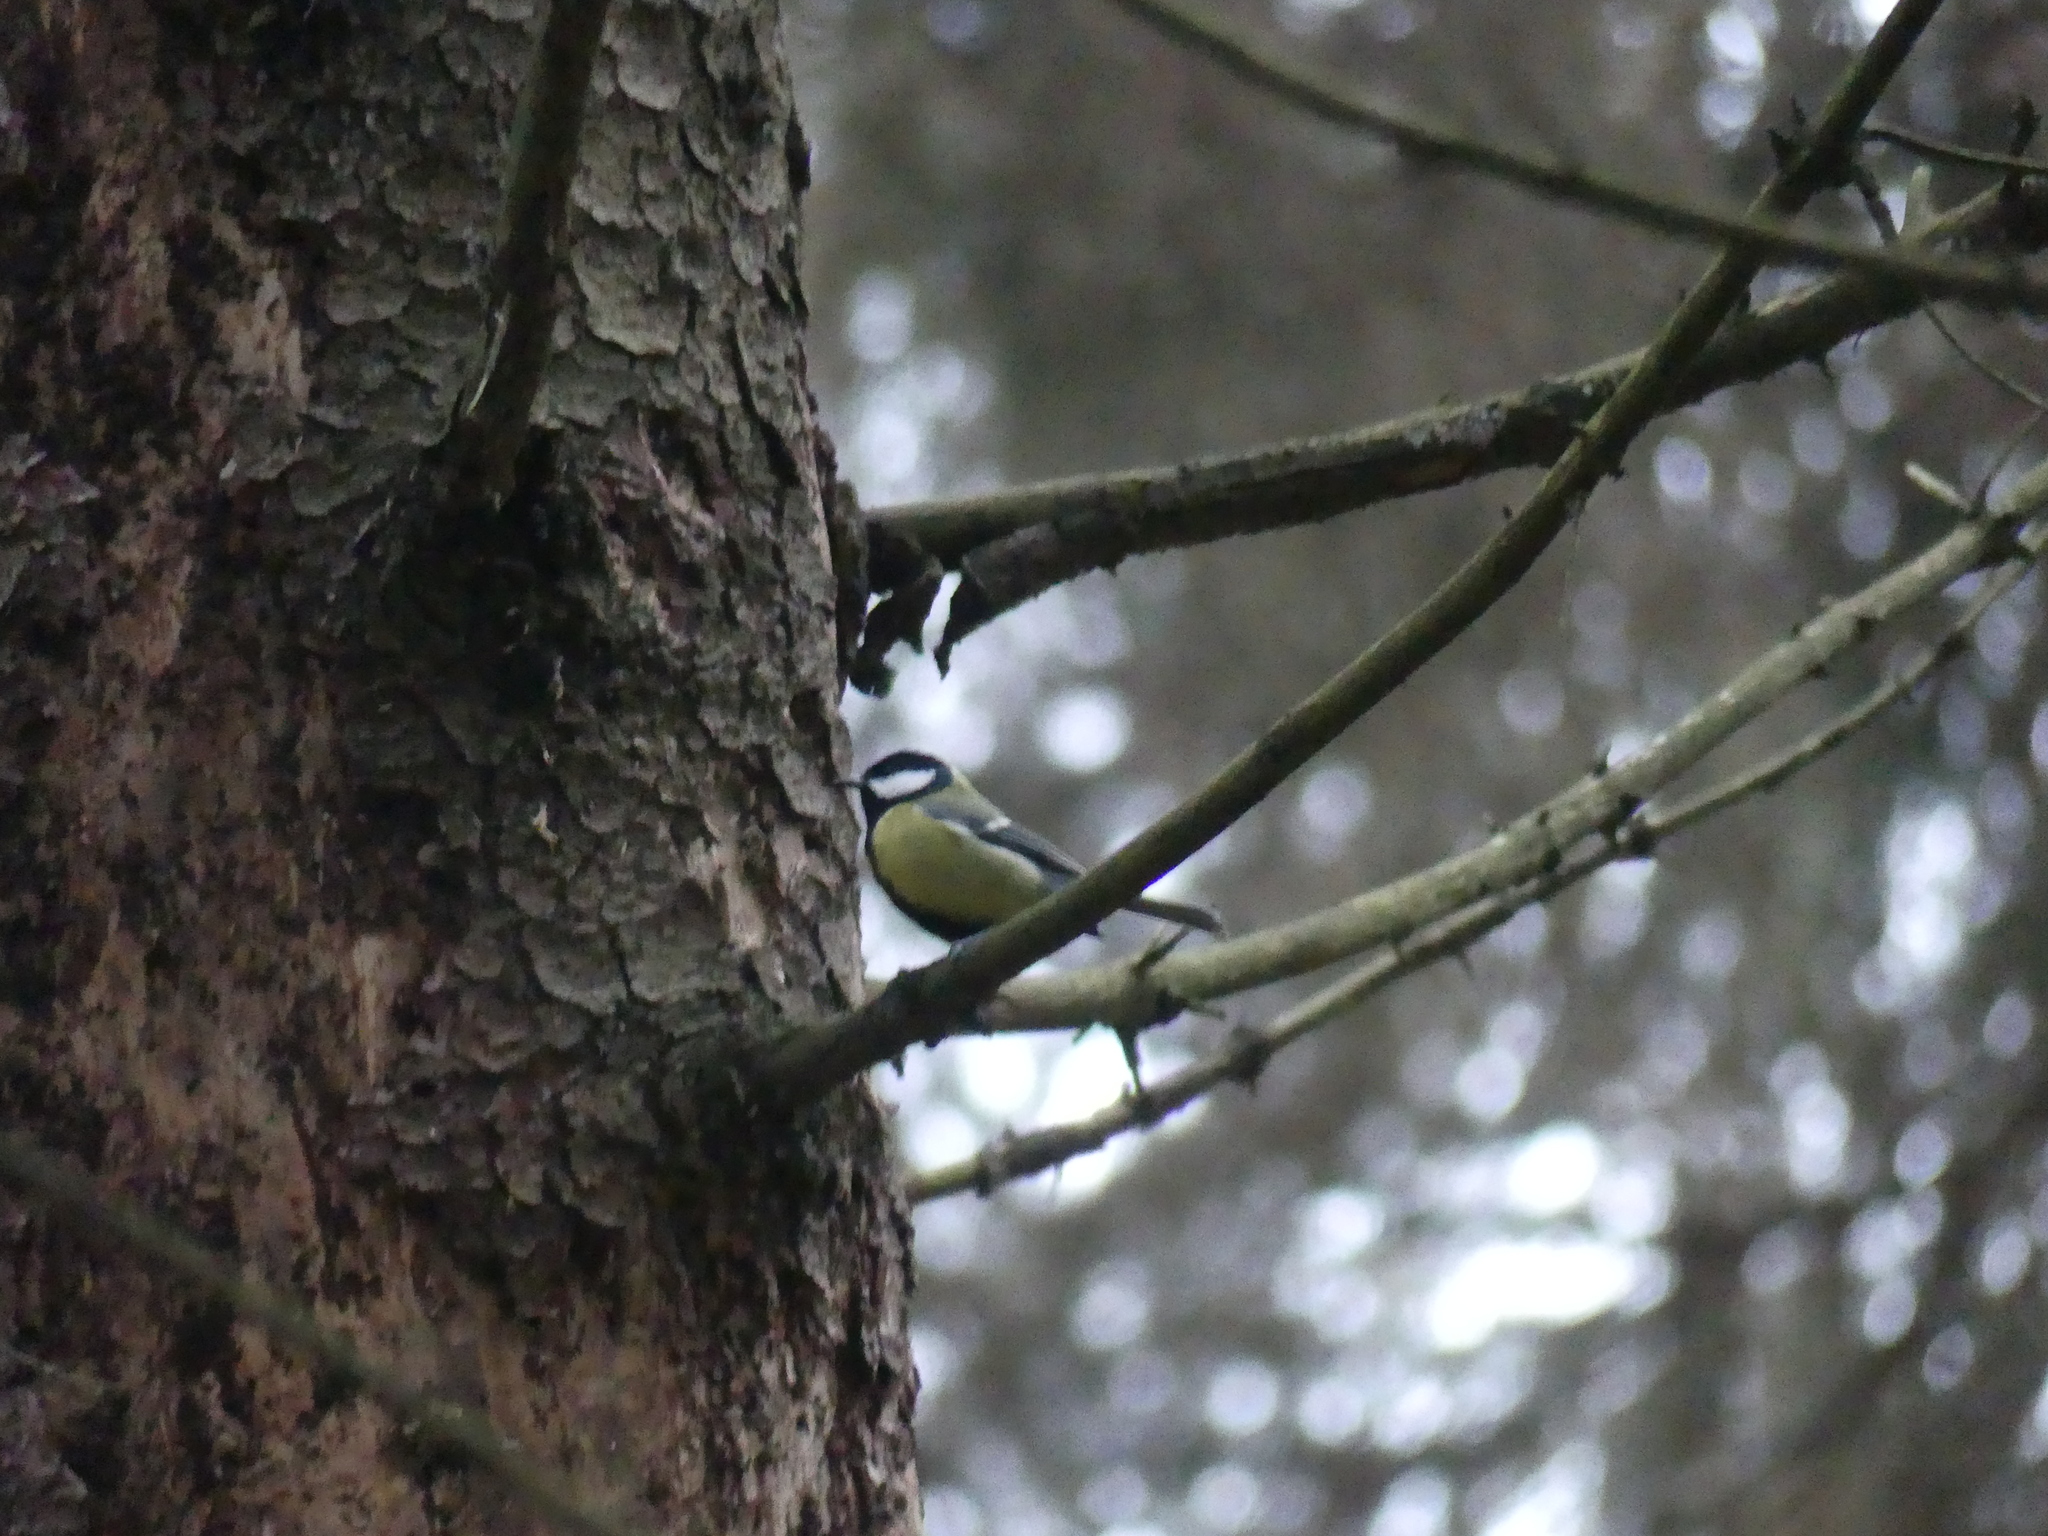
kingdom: Animalia
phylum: Chordata
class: Aves
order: Passeriformes
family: Paridae
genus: Parus
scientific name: Parus major
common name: Great tit
